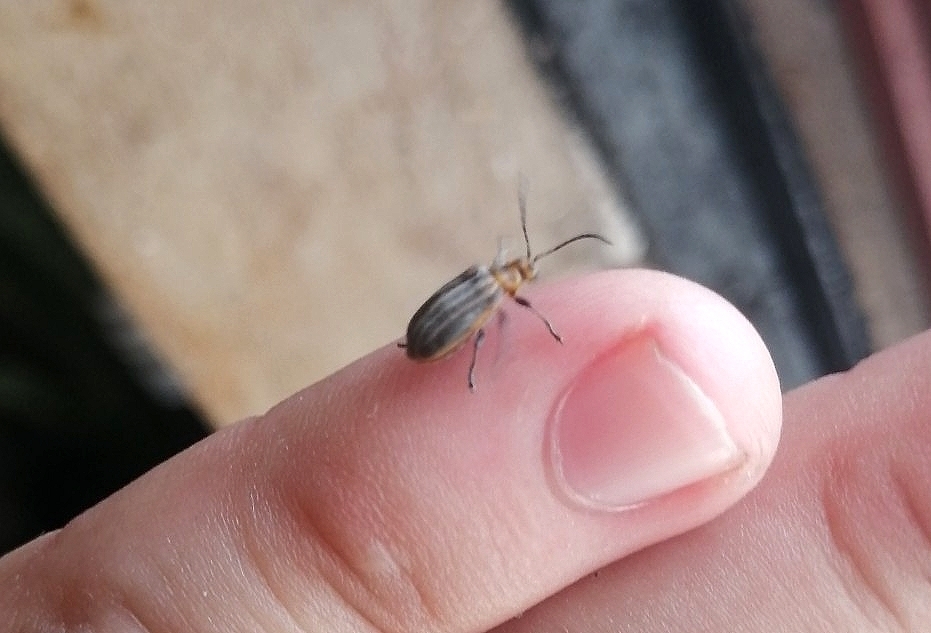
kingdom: Animalia
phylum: Arthropoda
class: Insecta
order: Coleoptera
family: Chrysomelidae
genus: Neolochmaea
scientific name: Neolochmaea dilatipennis
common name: Skeletonizing leaf beetle
